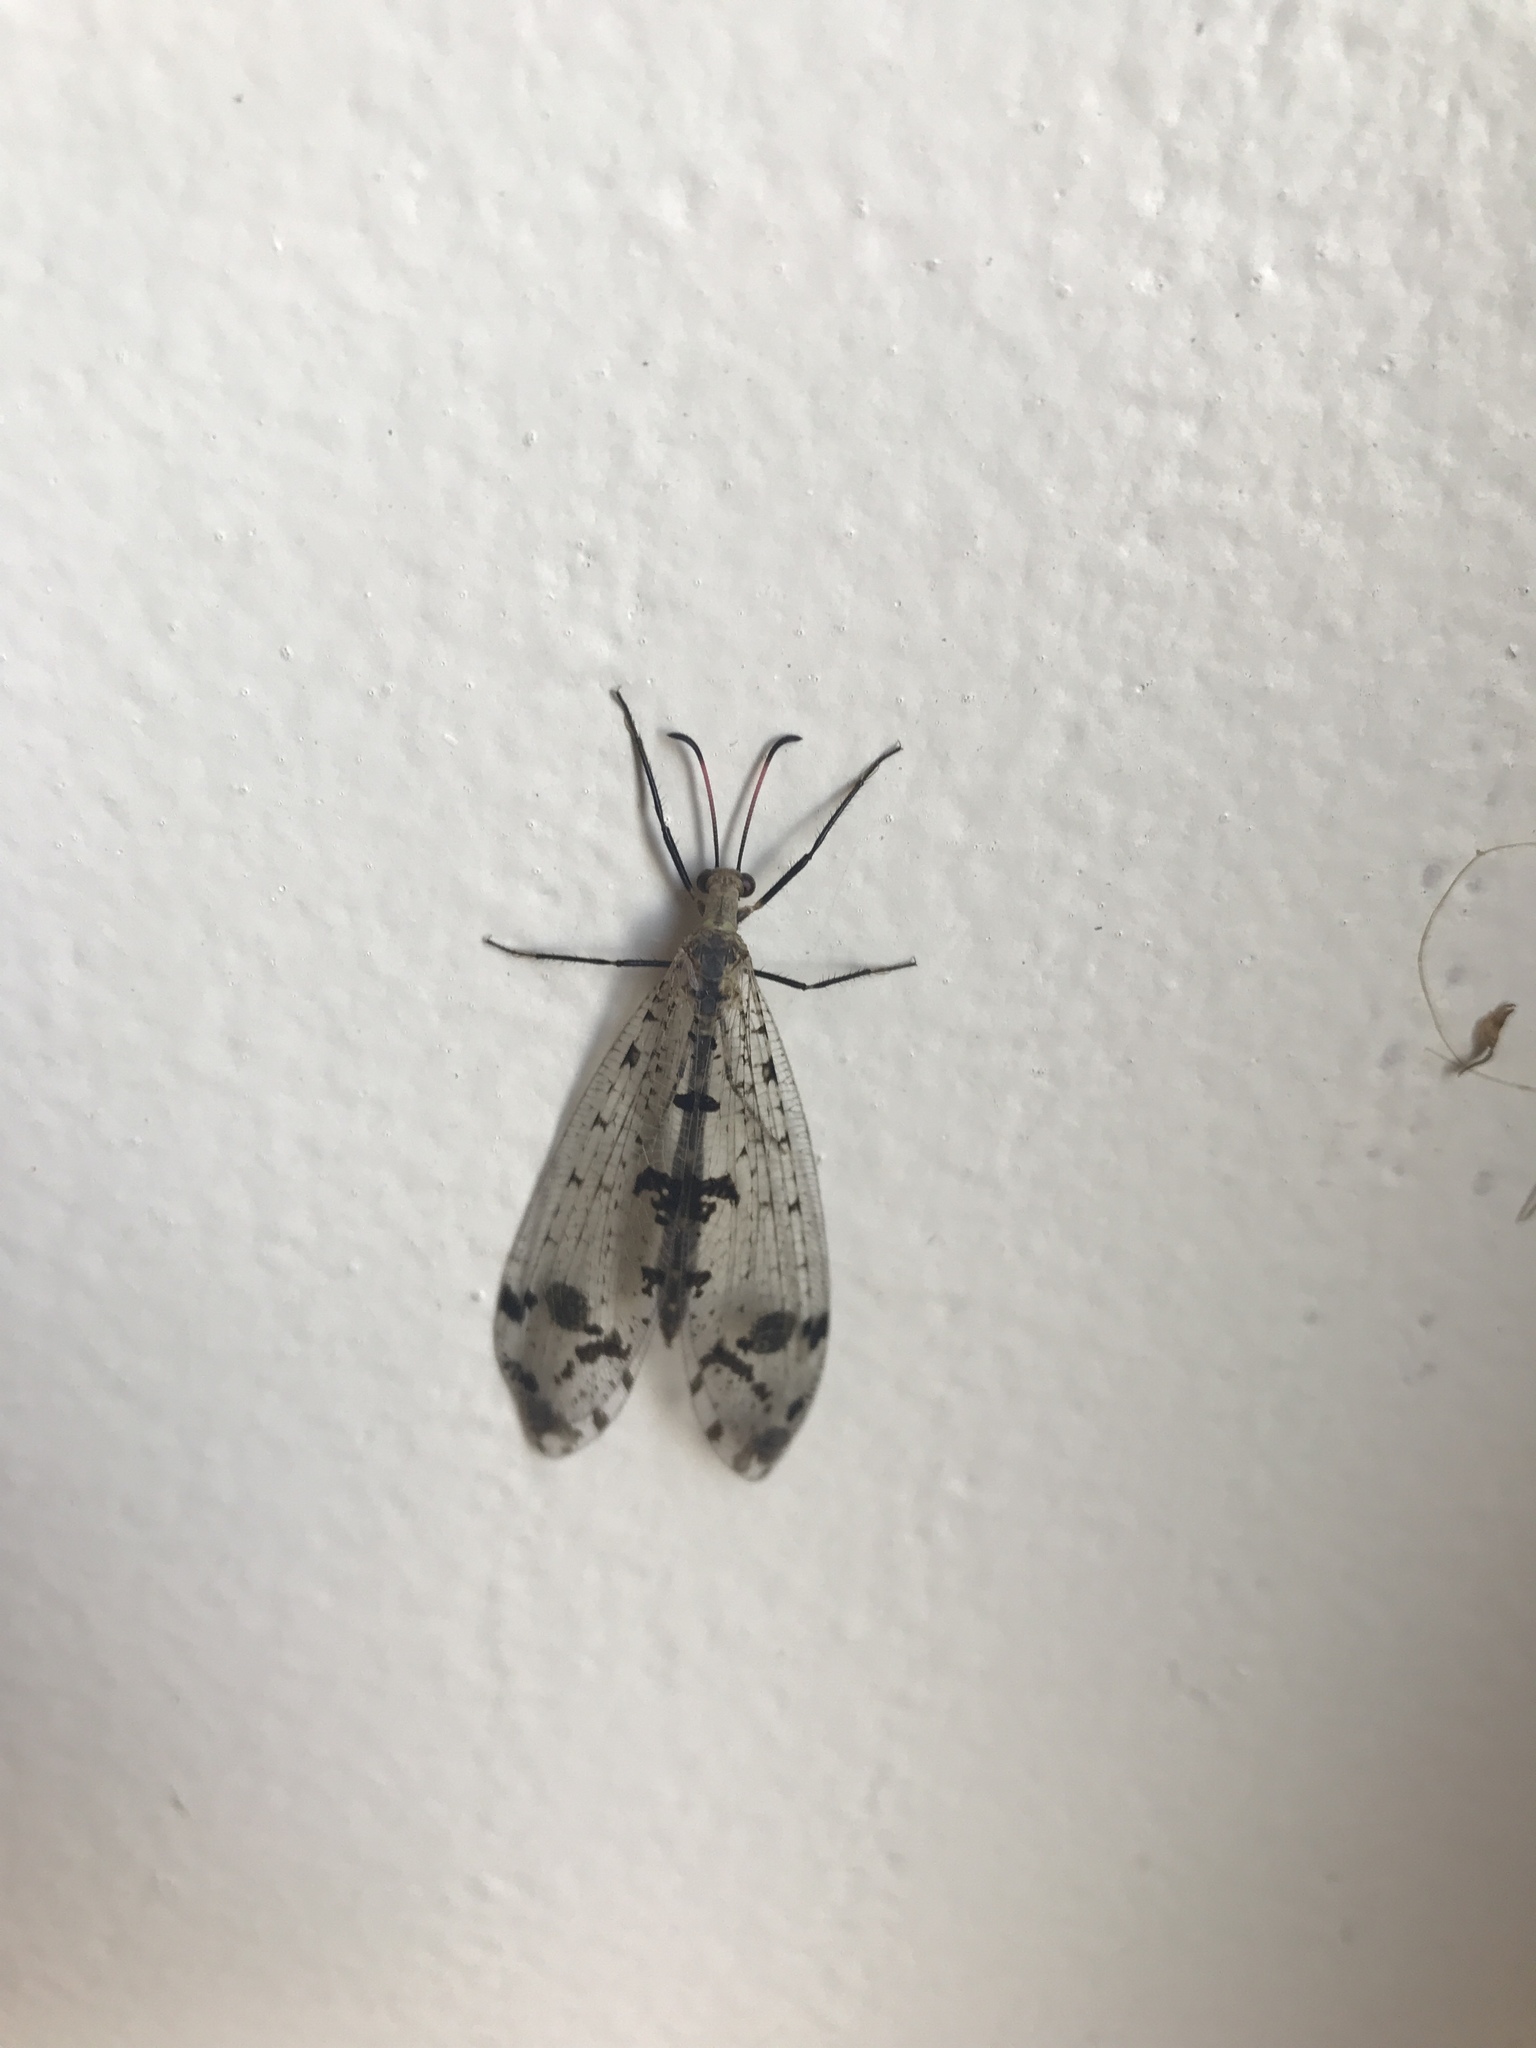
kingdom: Animalia
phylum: Arthropoda
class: Insecta
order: Neuroptera
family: Myrmeleontidae
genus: Dendroleon
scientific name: Dendroleon obsoletus
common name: Eastern spotted-winged antlion
